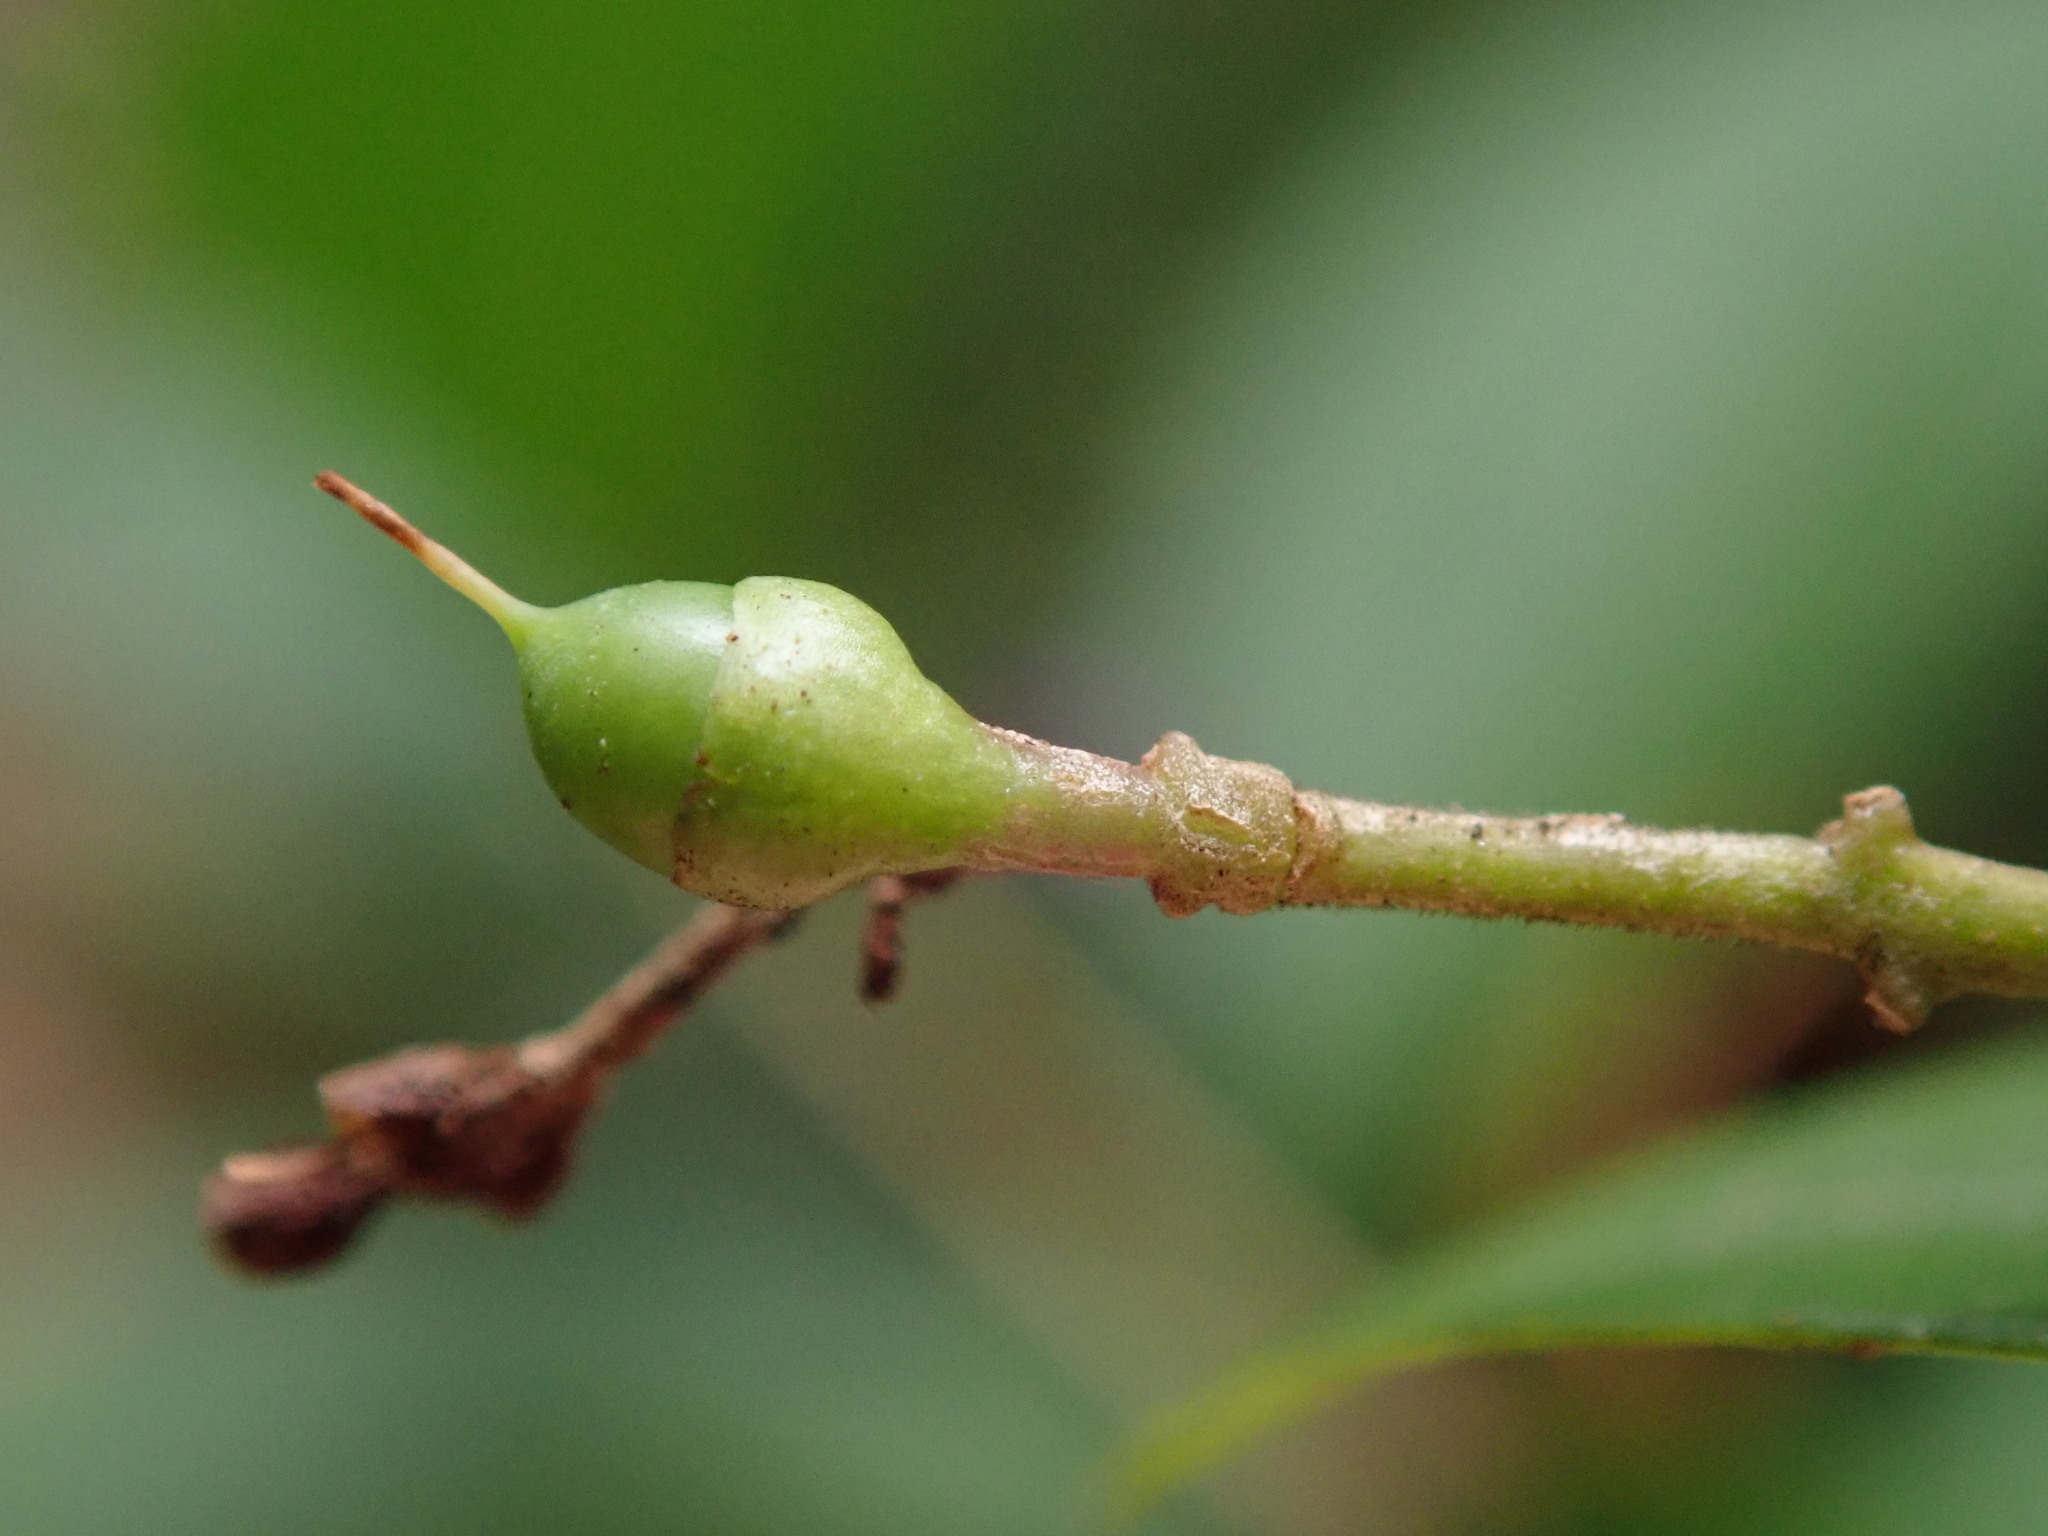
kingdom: Plantae
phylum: Tracheophyta
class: Magnoliopsida
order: Lamiales
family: Oleaceae
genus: Ligustrum
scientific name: Ligustrum ovalifolium
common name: California privet
